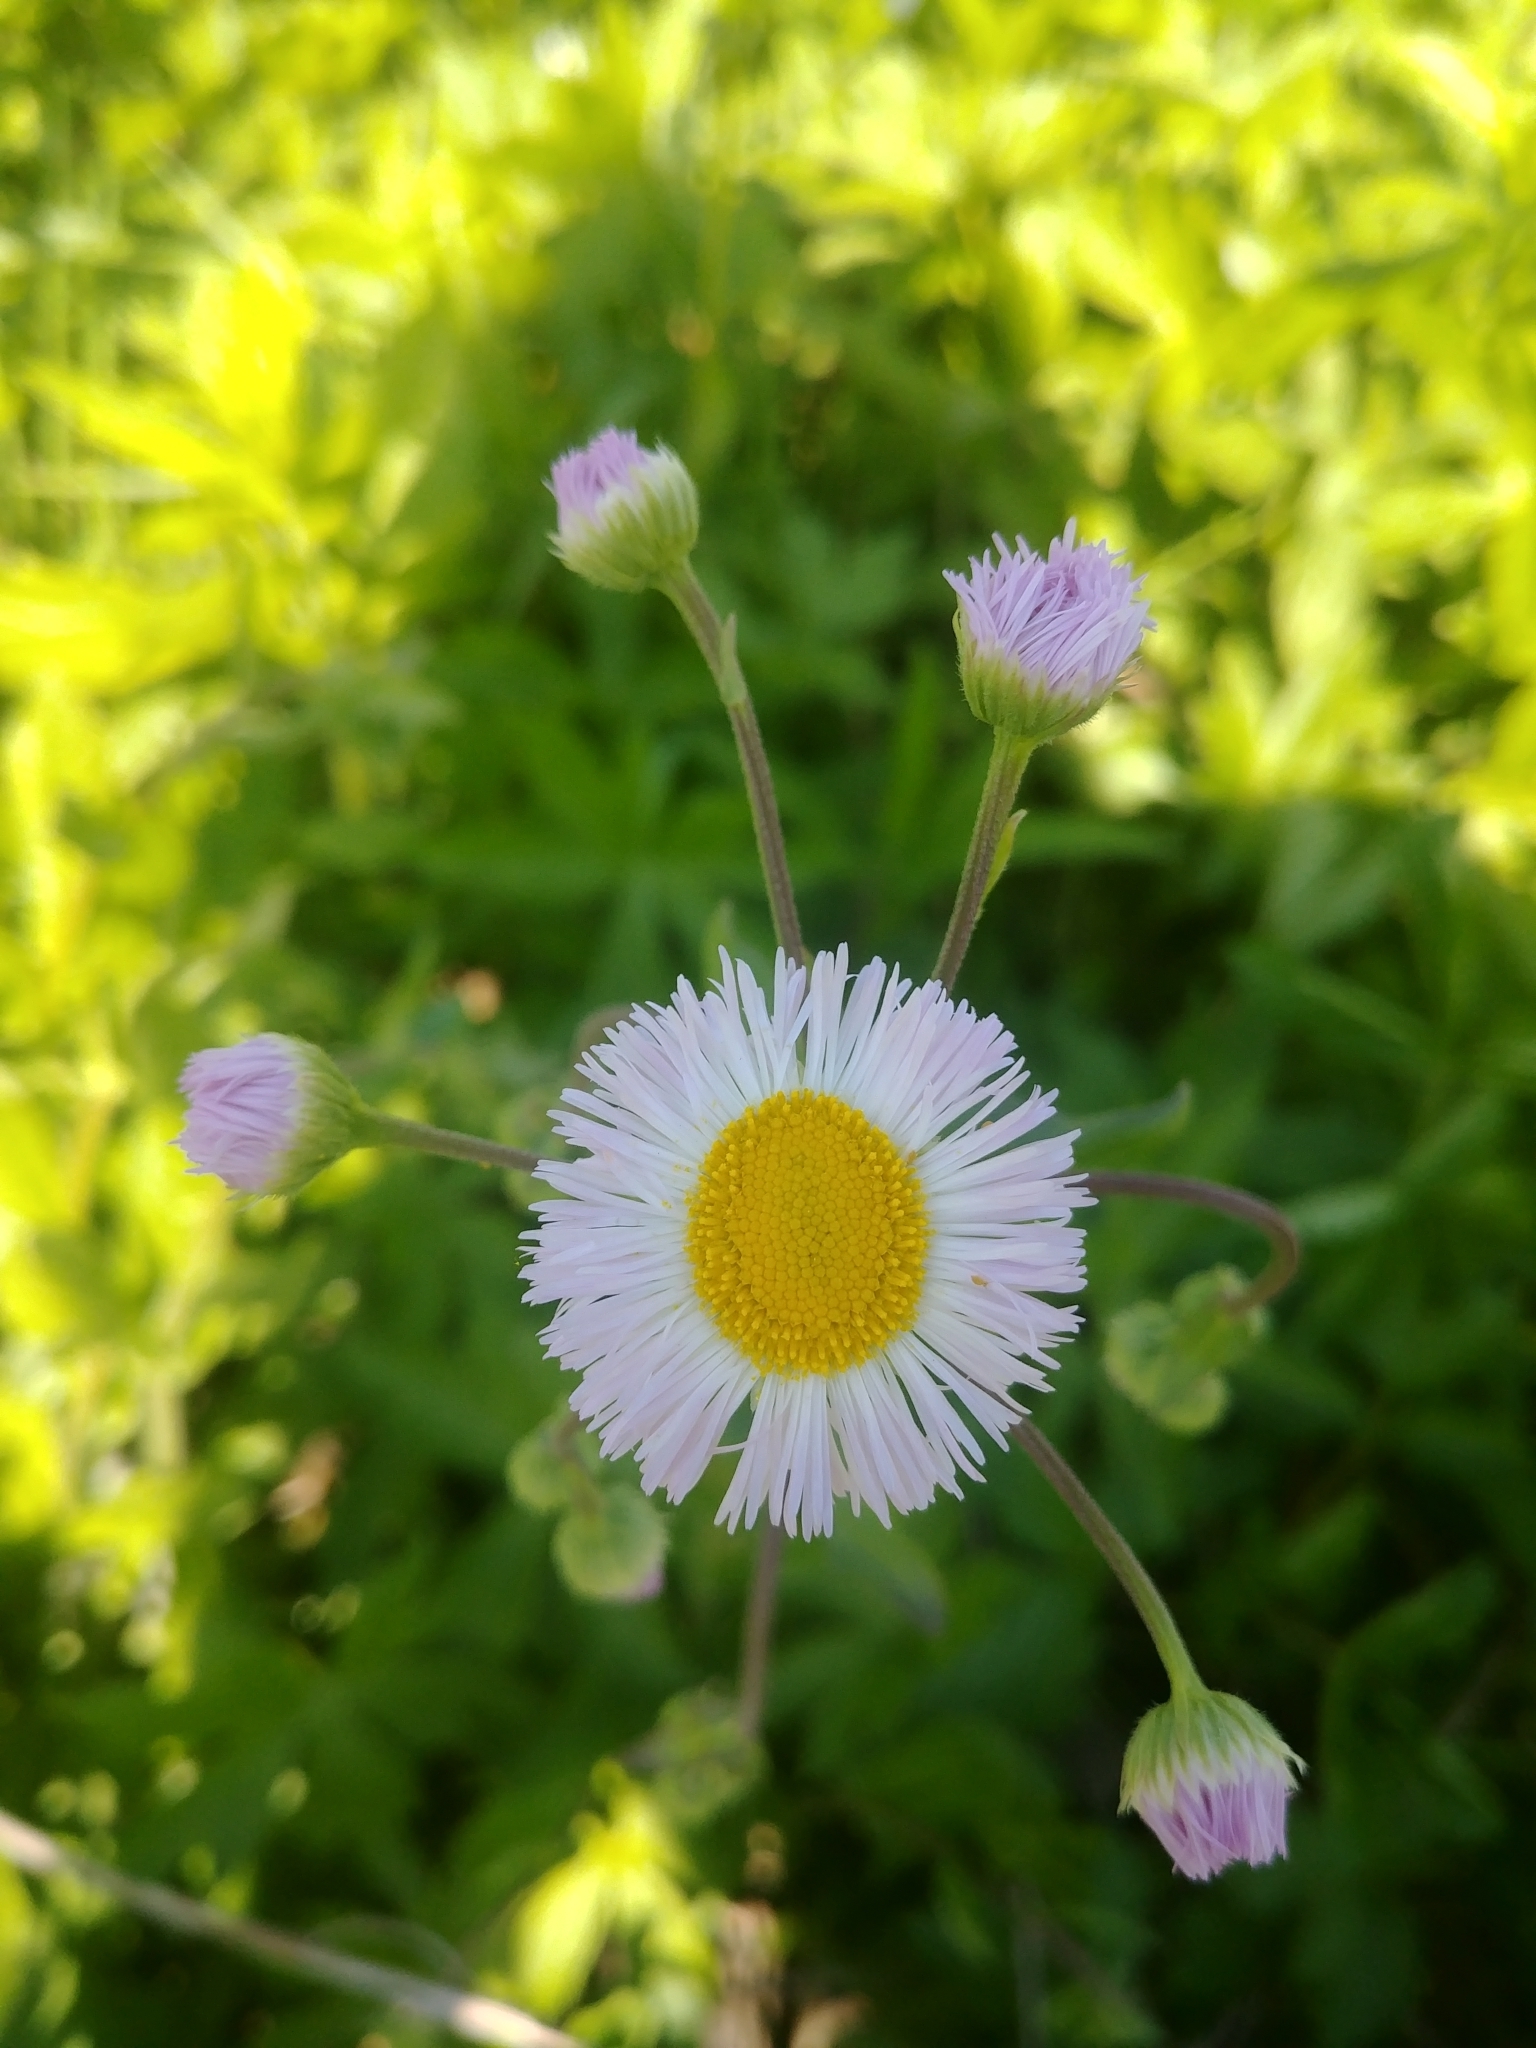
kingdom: Plantae
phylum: Tracheophyta
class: Magnoliopsida
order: Asterales
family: Asteraceae
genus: Erigeron
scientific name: Erigeron philadelphicus
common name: Robin's-plantain
